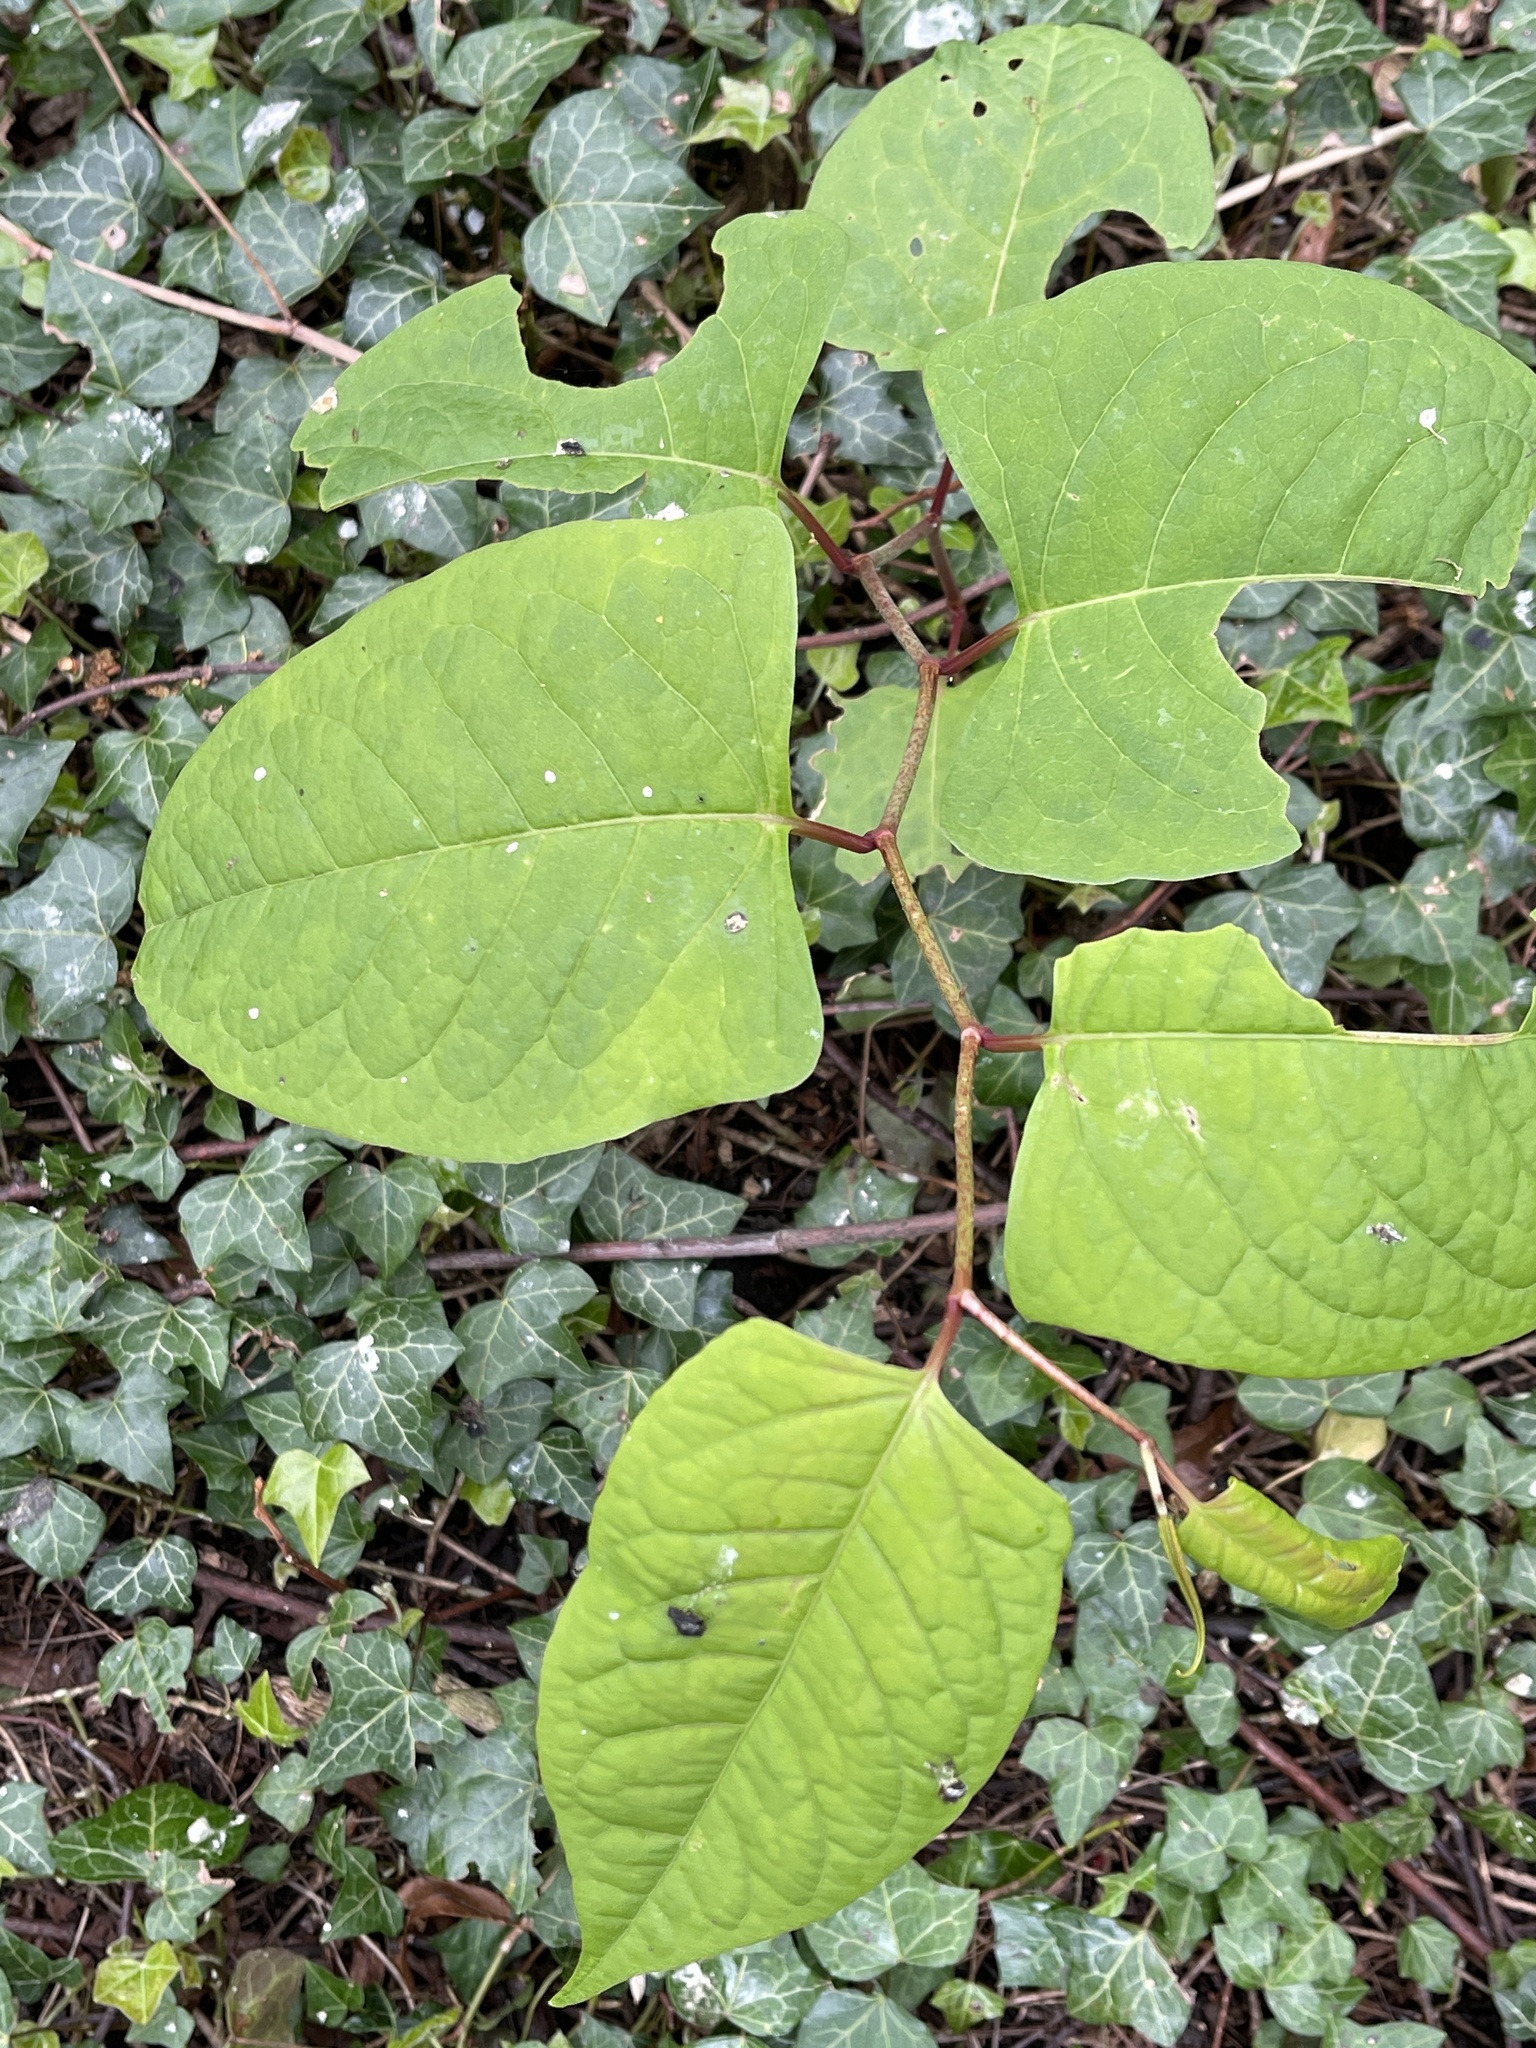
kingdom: Plantae
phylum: Tracheophyta
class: Magnoliopsida
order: Caryophyllales
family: Polygonaceae
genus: Reynoutria
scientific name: Reynoutria japonica
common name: Japanese knotweed
